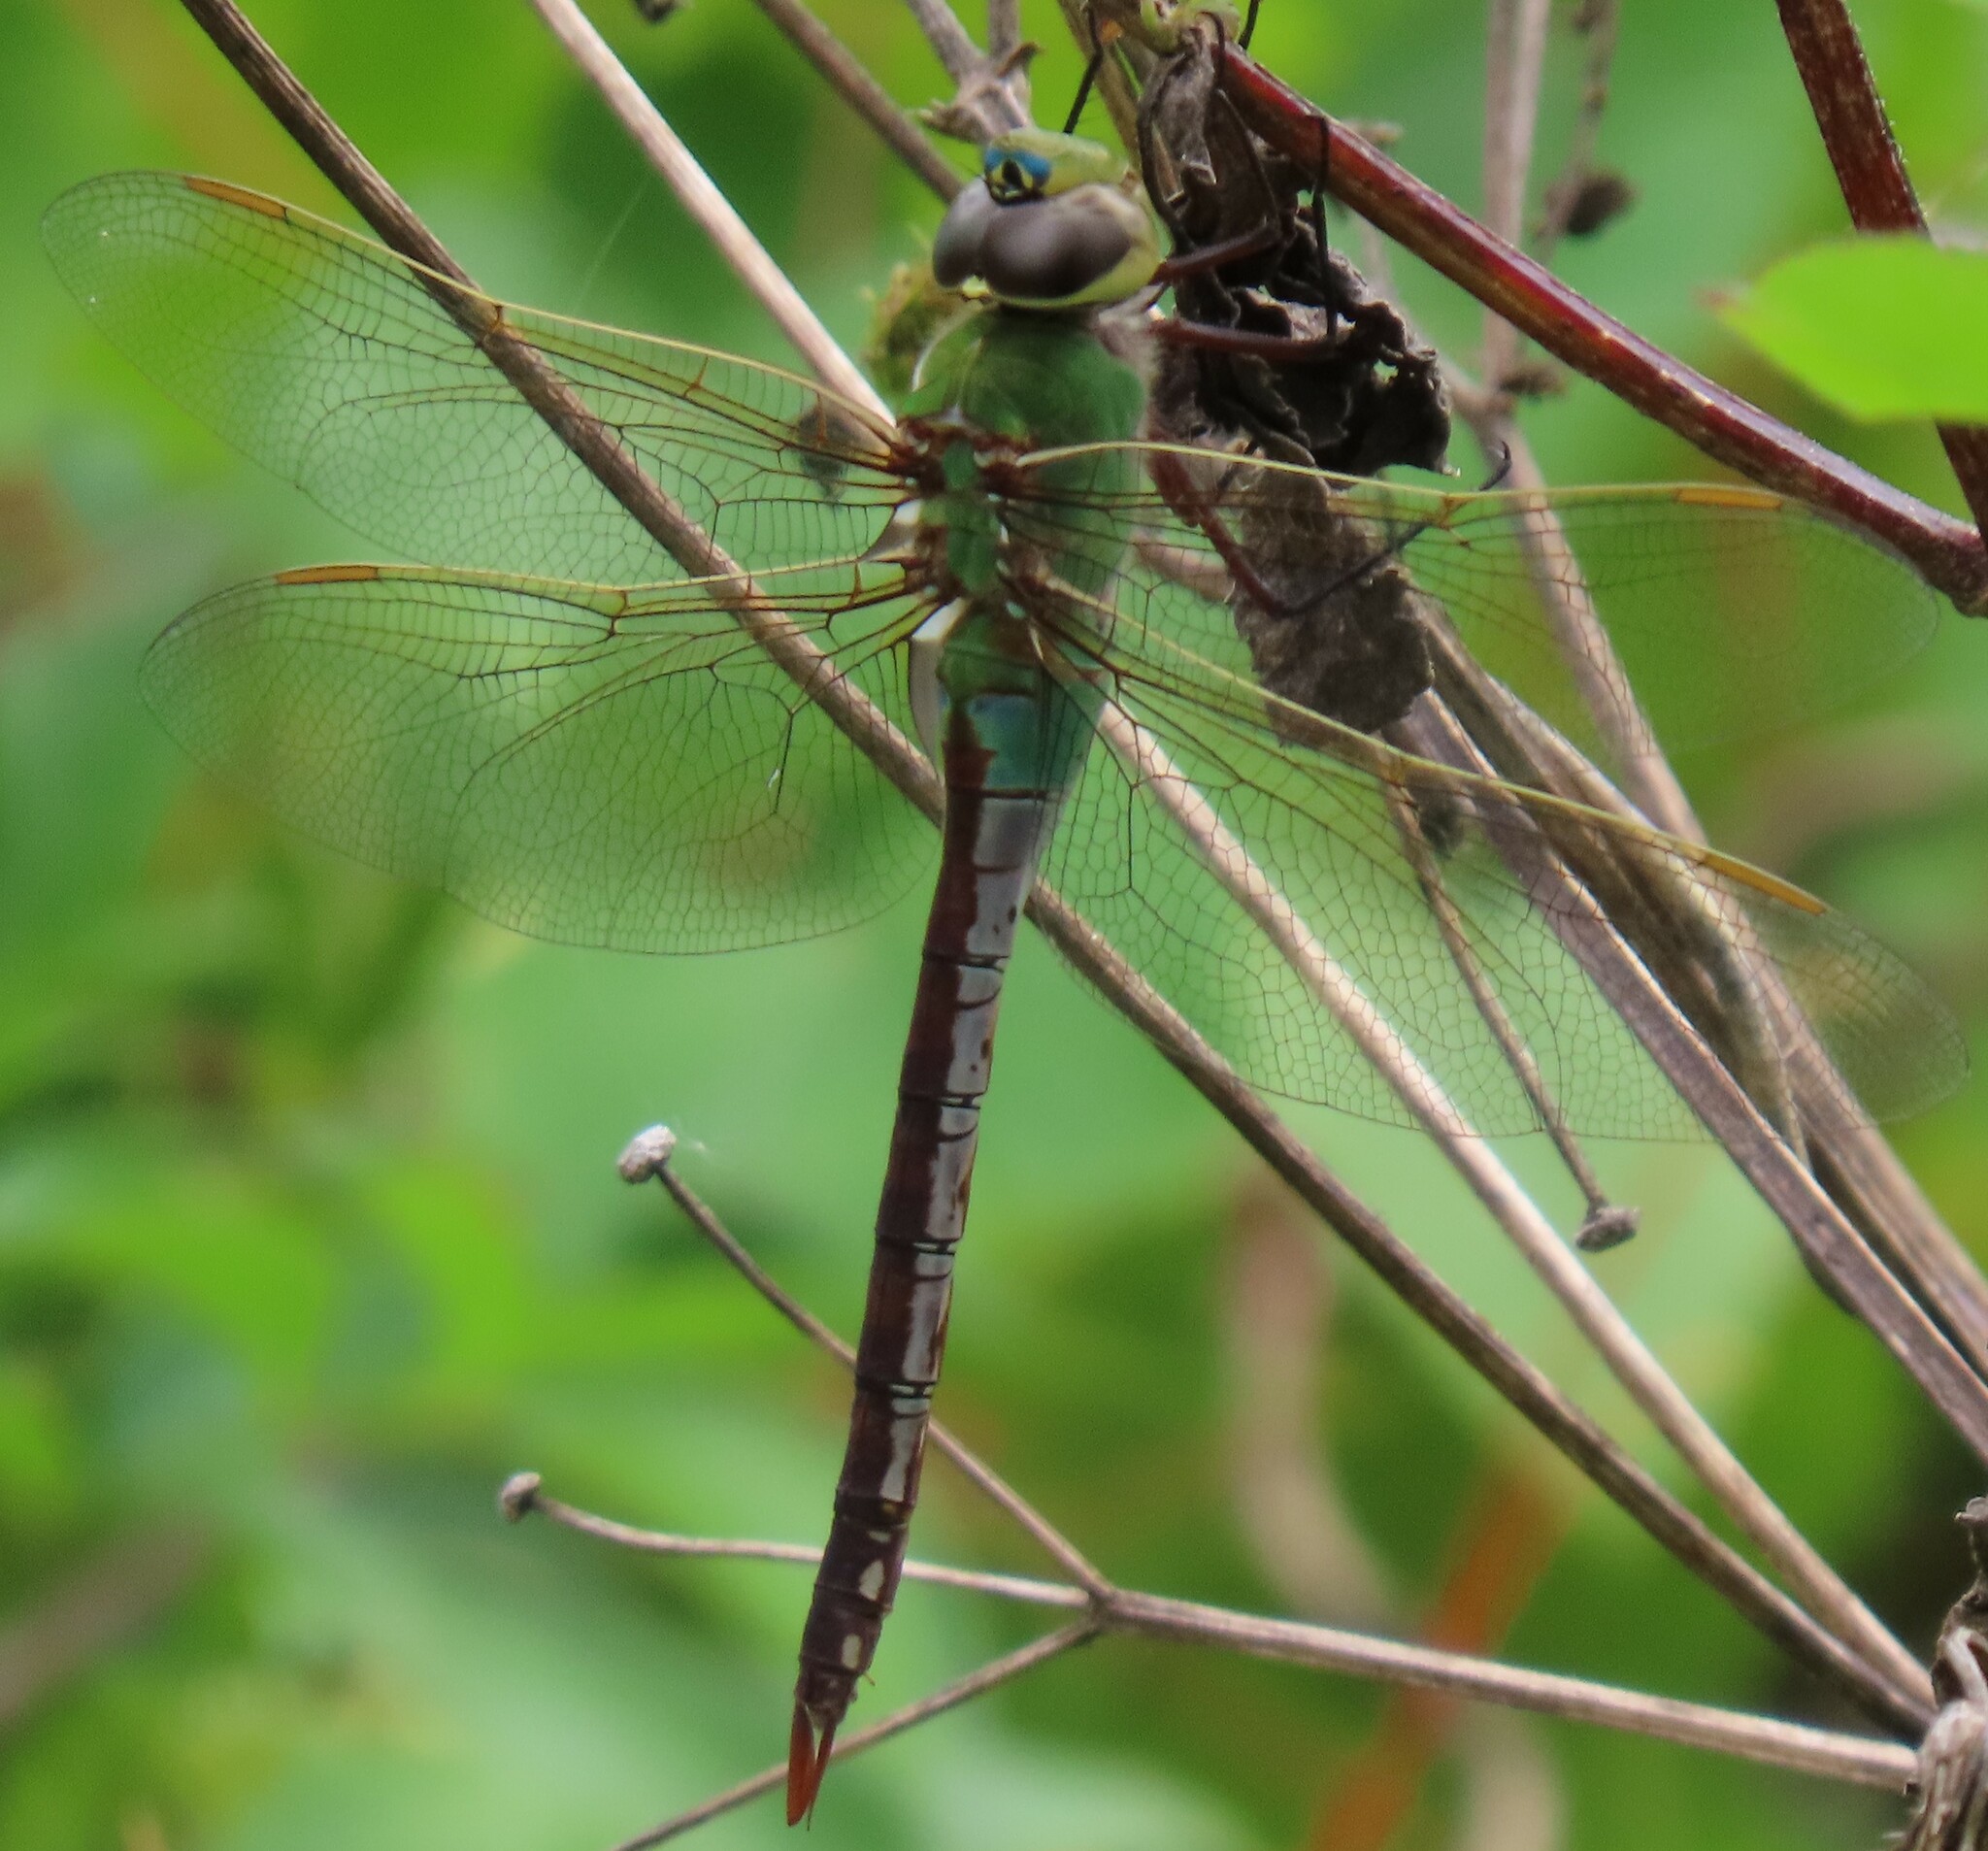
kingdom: Animalia
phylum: Arthropoda
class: Insecta
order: Odonata
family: Aeshnidae
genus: Anax
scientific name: Anax junius
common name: Common green darner
